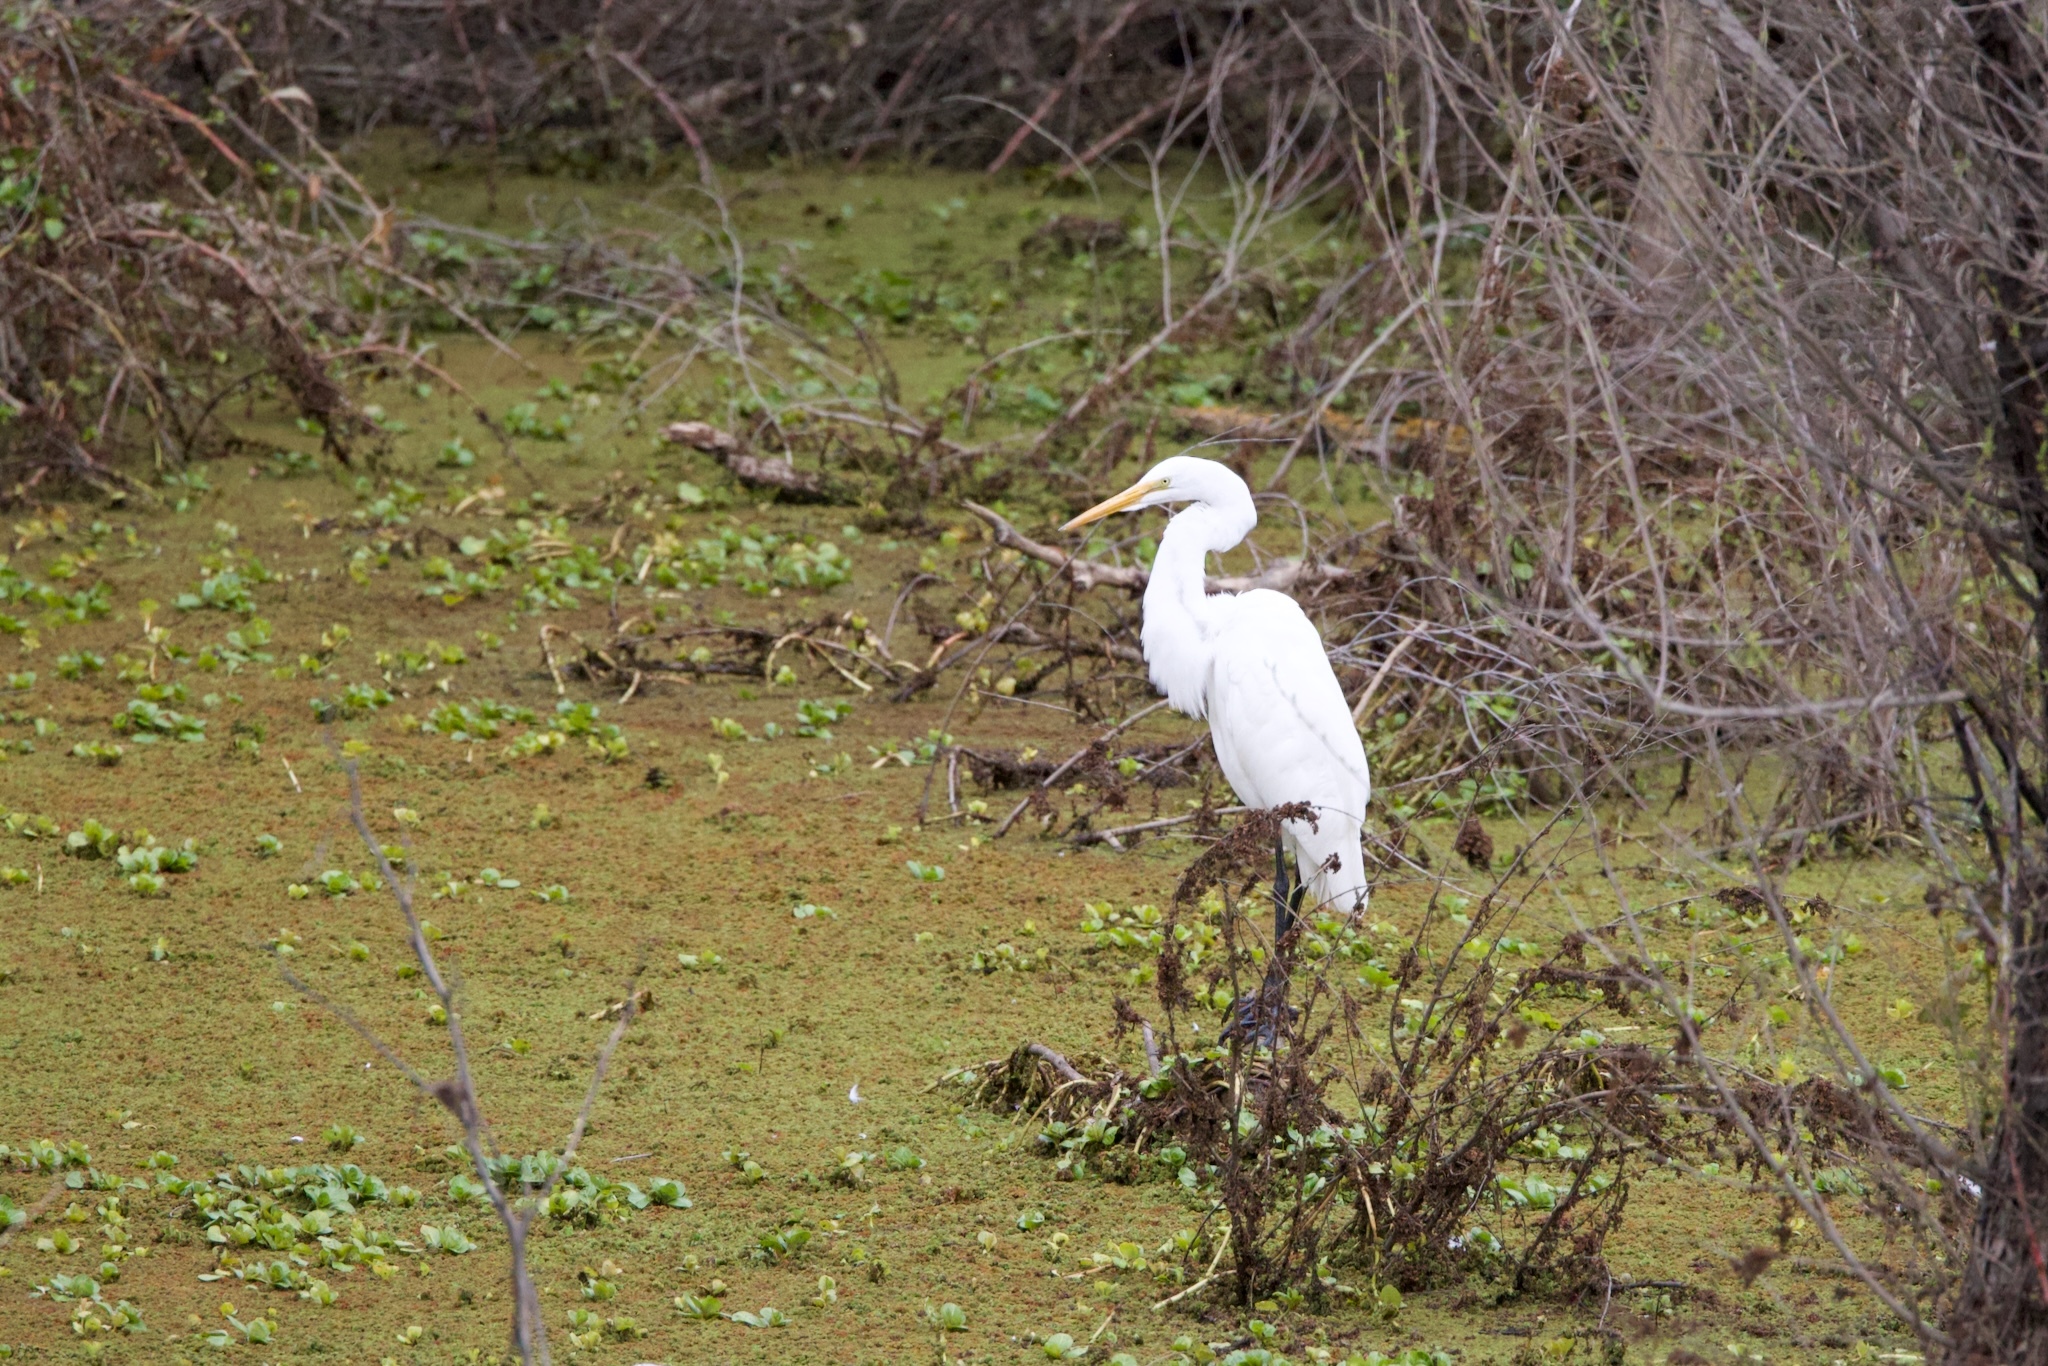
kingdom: Animalia
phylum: Chordata
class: Aves
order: Pelecaniformes
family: Ardeidae
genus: Ardea
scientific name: Ardea alba
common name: Great egret
